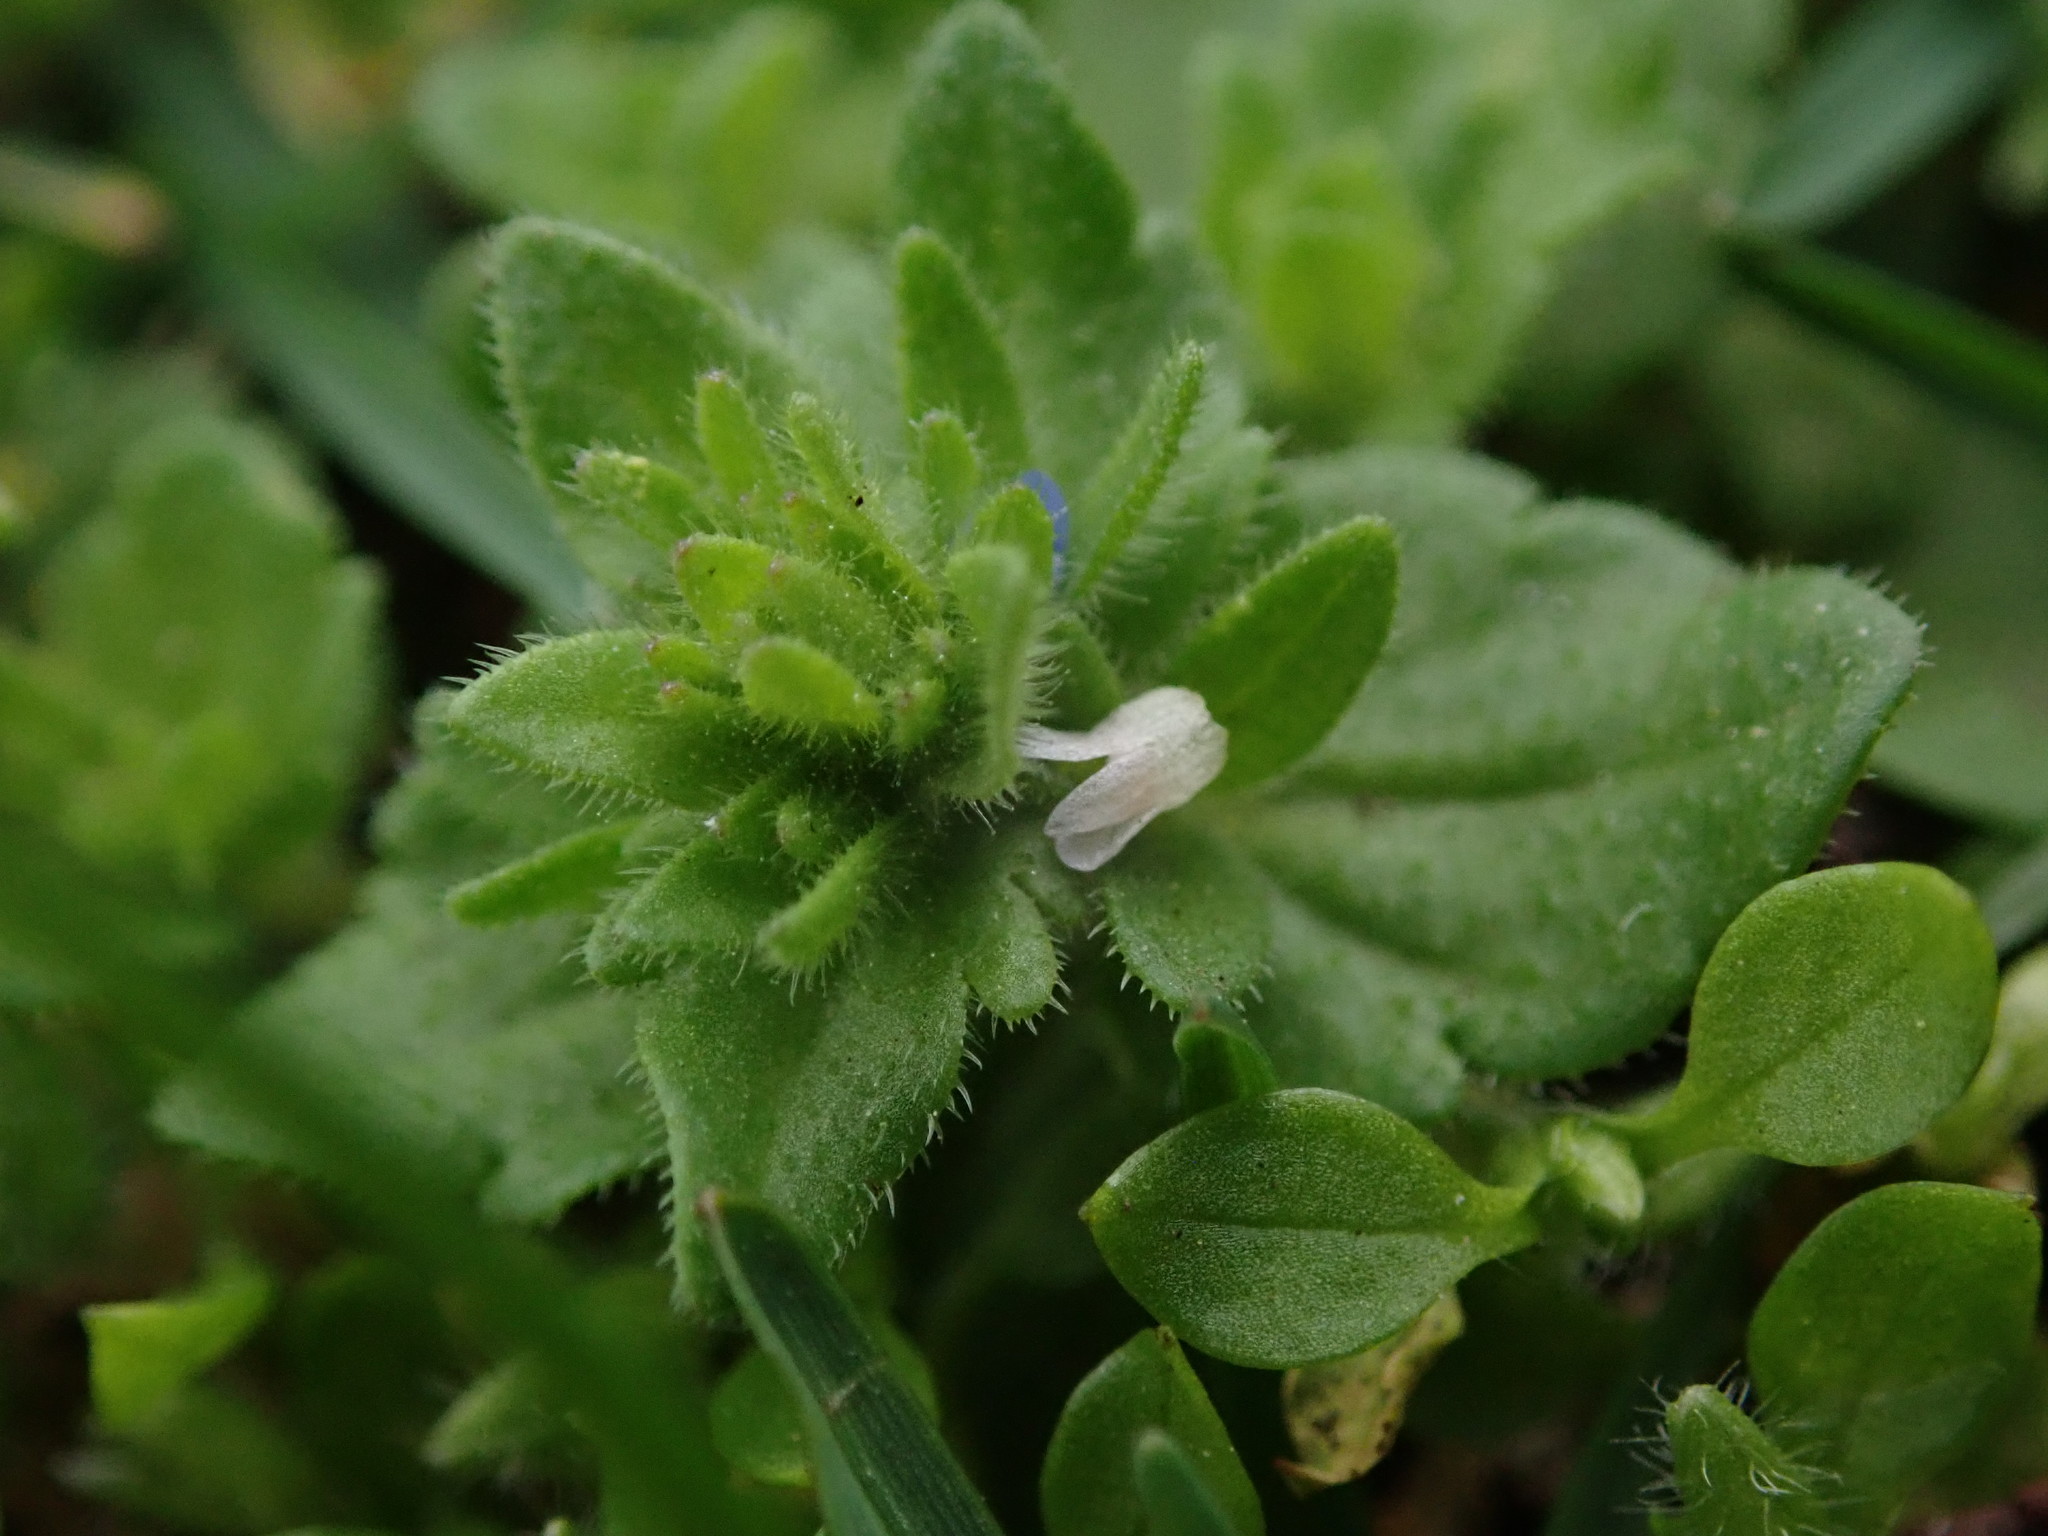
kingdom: Plantae
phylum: Tracheophyta
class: Magnoliopsida
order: Lamiales
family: Plantaginaceae
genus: Veronica
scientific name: Veronica arvensis
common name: Corn speedwell
